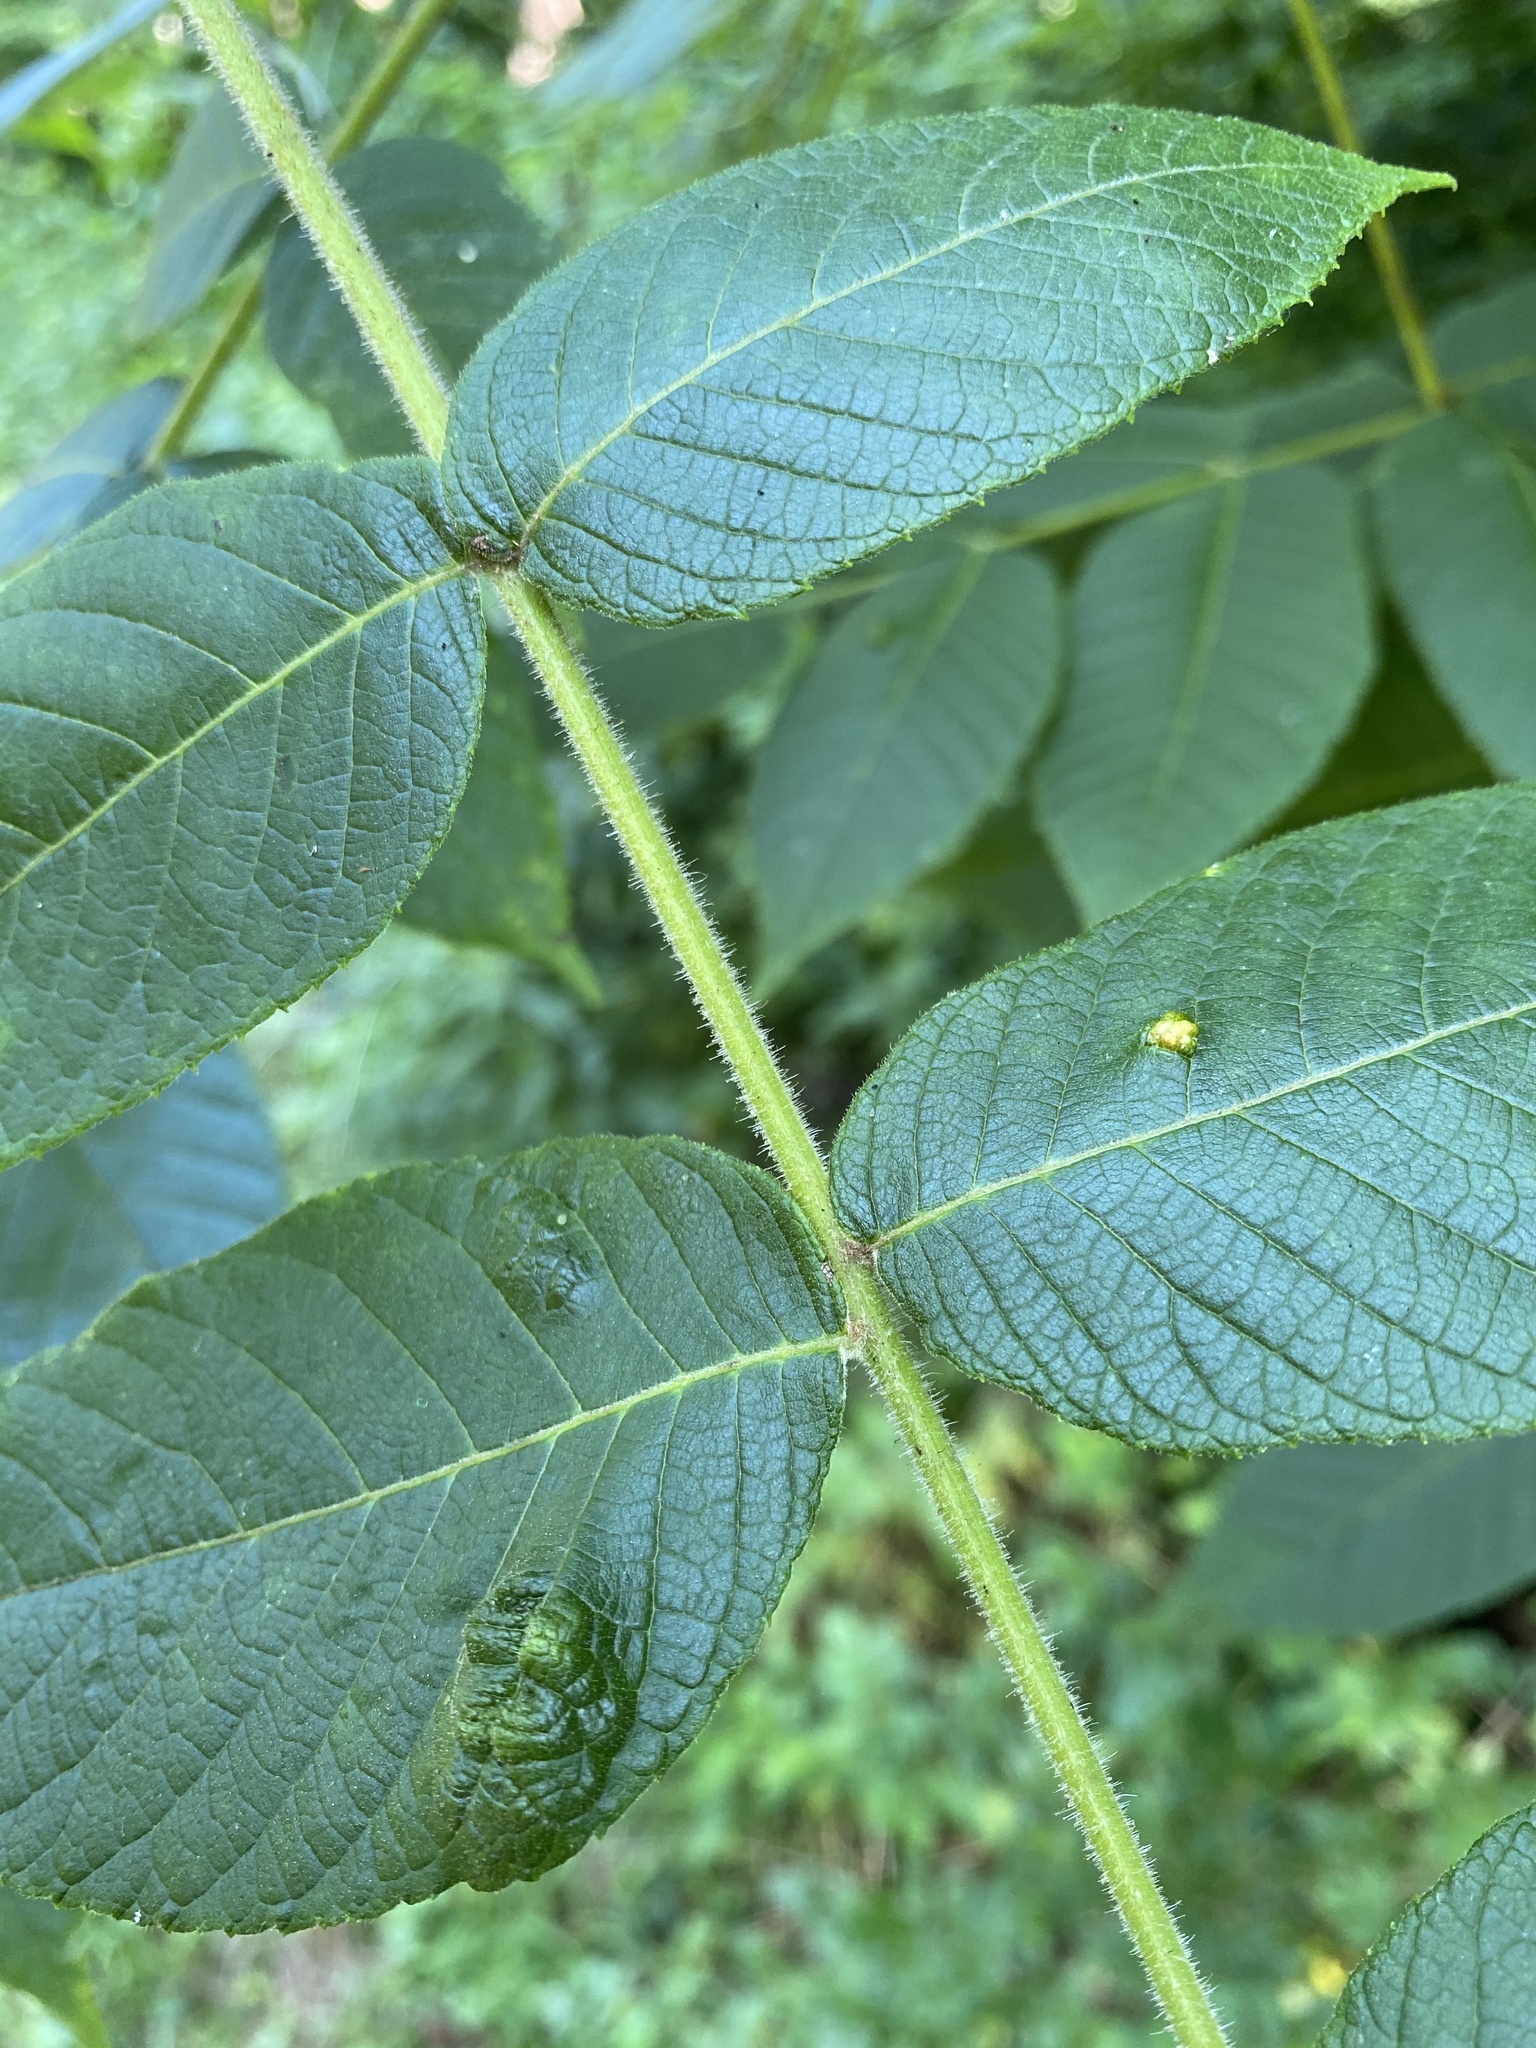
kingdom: Plantae
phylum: Tracheophyta
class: Magnoliopsida
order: Fagales
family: Juglandaceae
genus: Juglans
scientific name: Juglans nigra
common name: Black walnut
